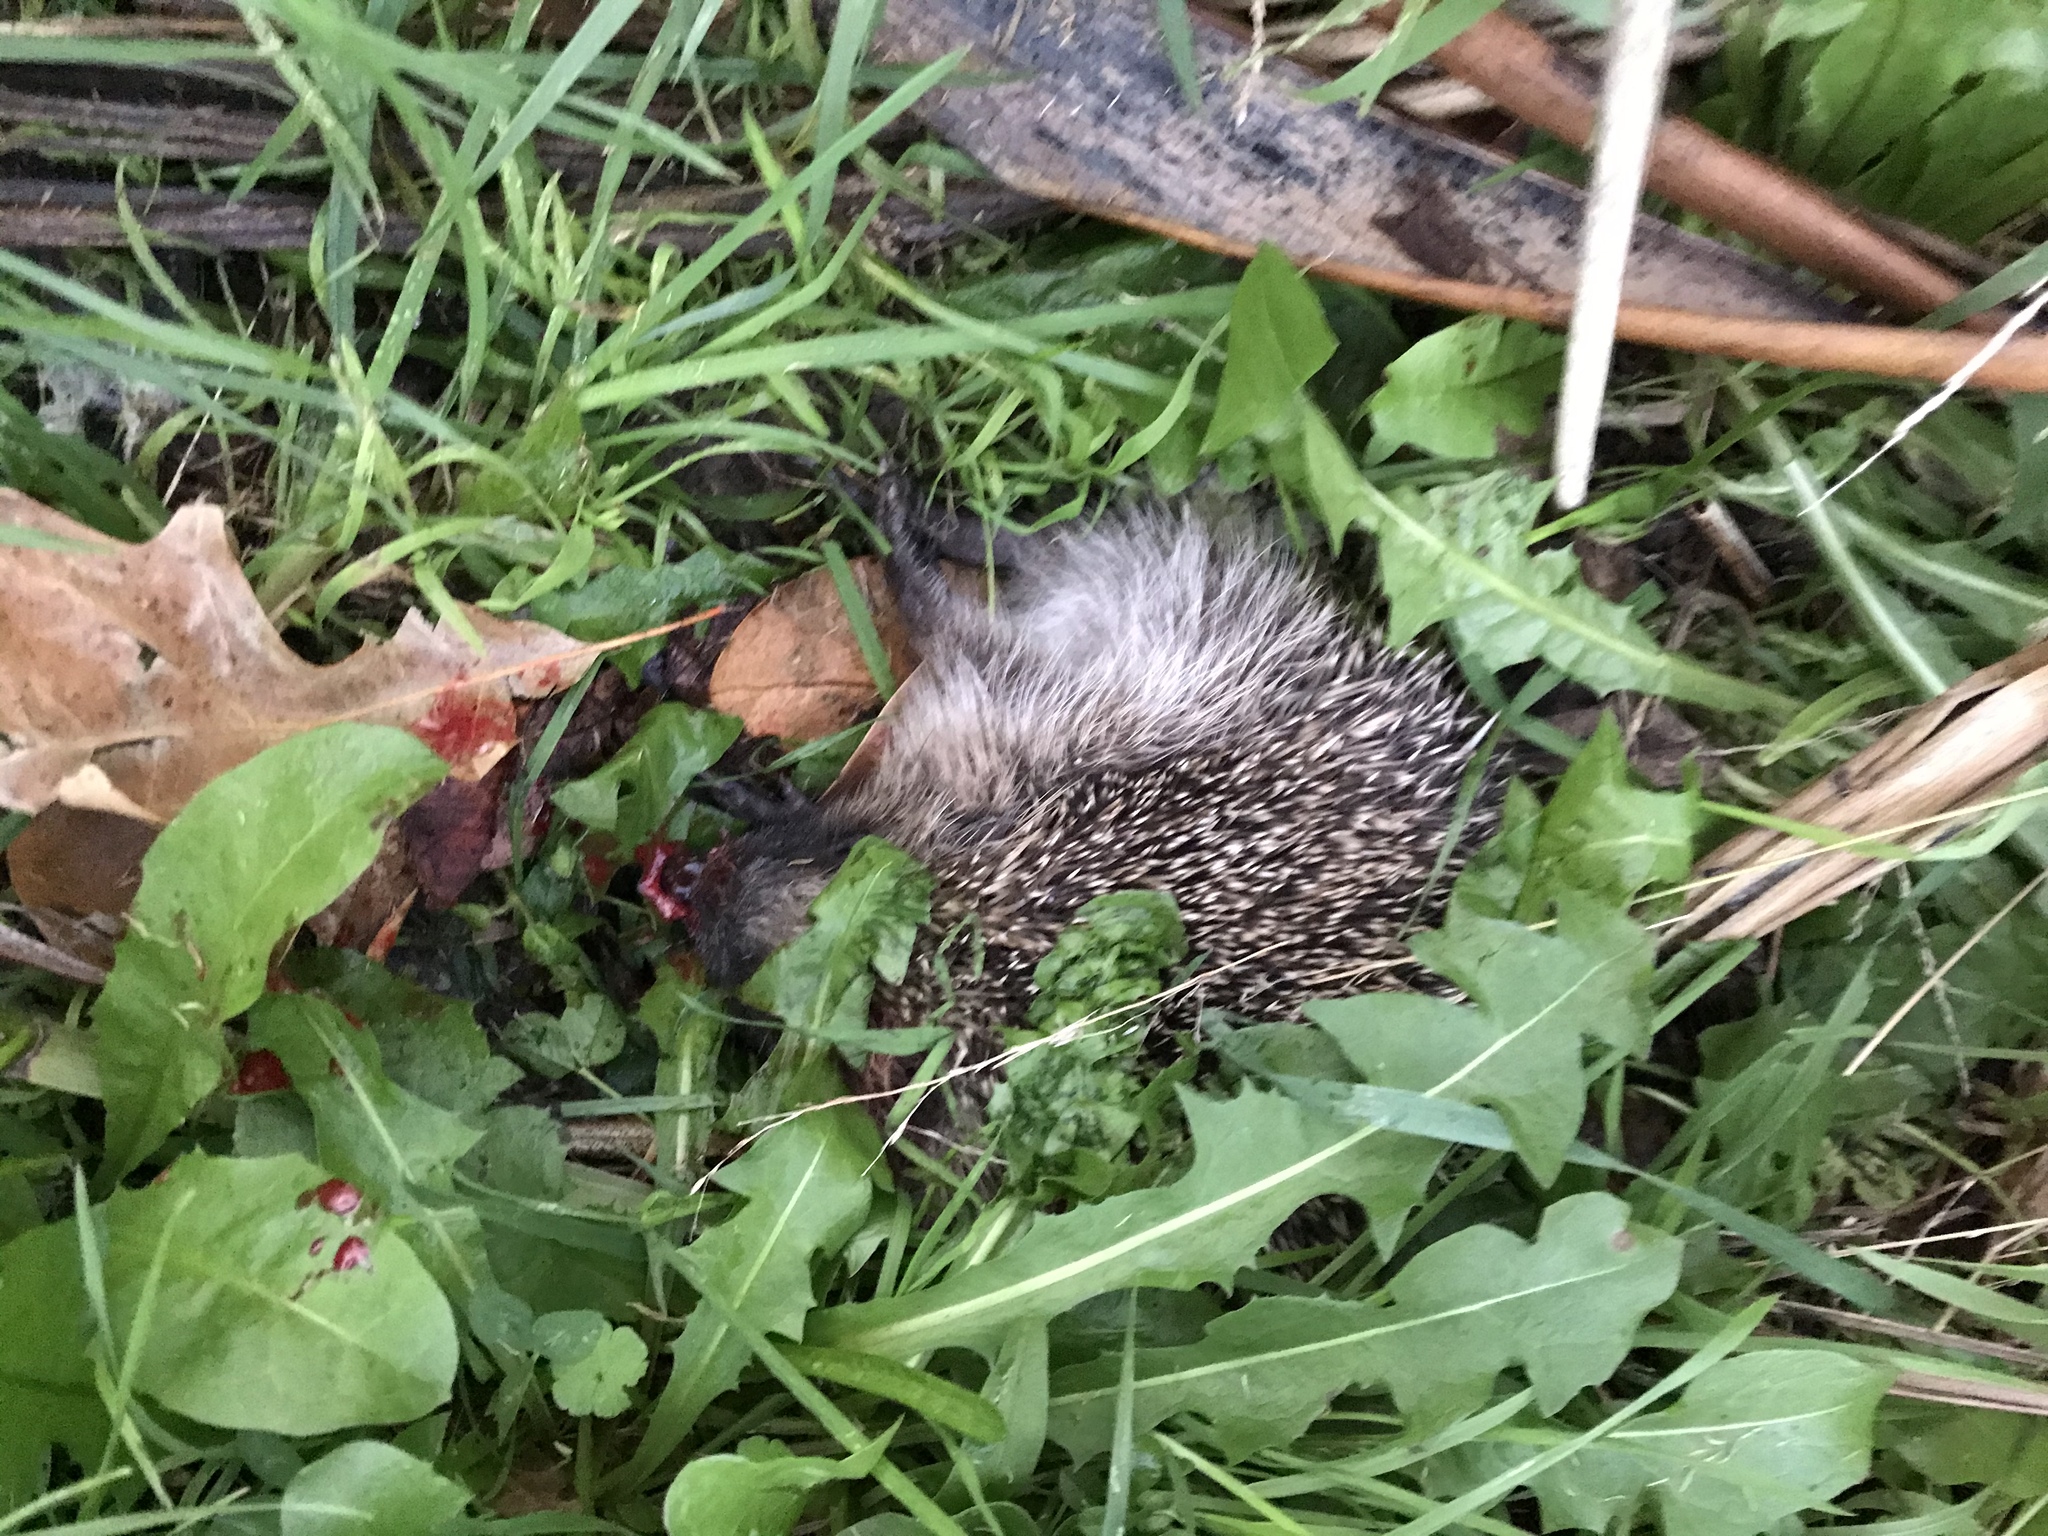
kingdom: Animalia
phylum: Chordata
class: Mammalia
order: Erinaceomorpha
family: Erinaceidae
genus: Erinaceus
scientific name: Erinaceus europaeus
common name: West european hedgehog
